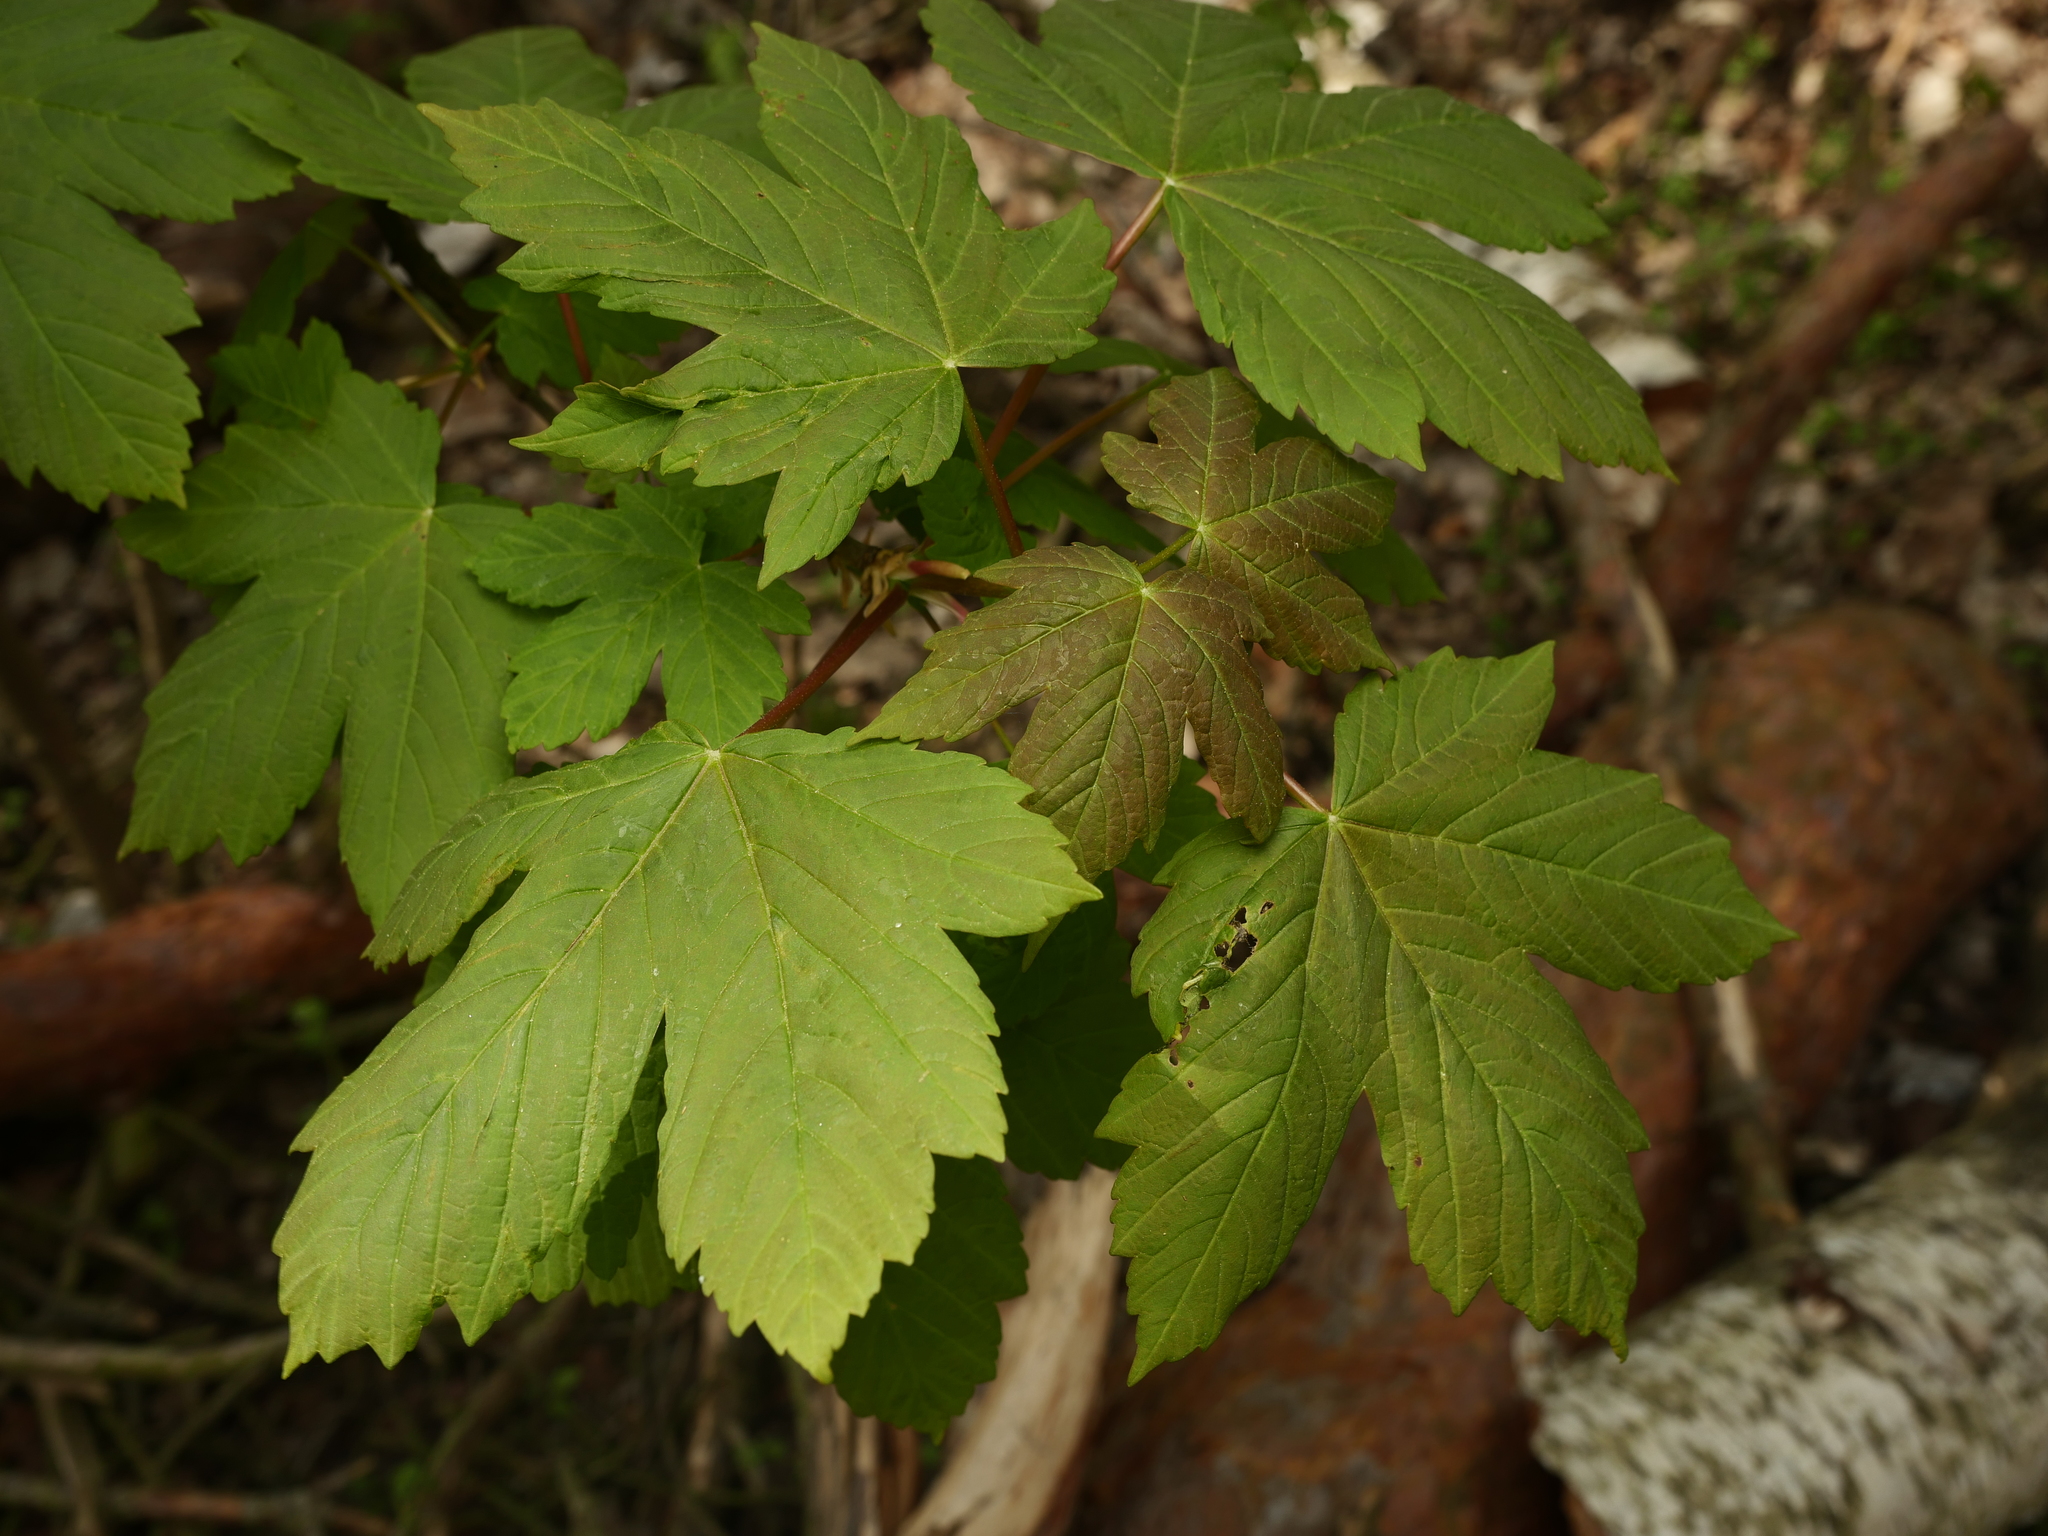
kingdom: Plantae
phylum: Tracheophyta
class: Magnoliopsida
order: Sapindales
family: Sapindaceae
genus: Acer
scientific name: Acer pseudoplatanus
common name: Sycamore
